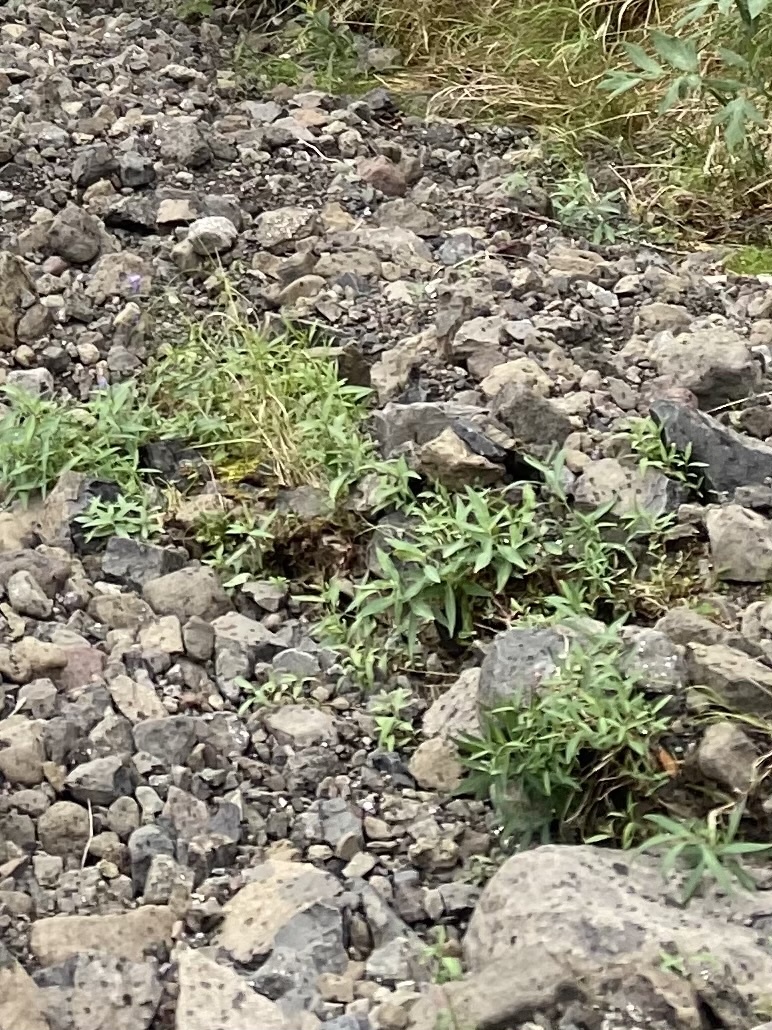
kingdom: Plantae
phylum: Tracheophyta
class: Magnoliopsida
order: Myrtales
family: Onagraceae
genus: Chamaenerion
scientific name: Chamaenerion latifolium
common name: Dwarf fireweed
